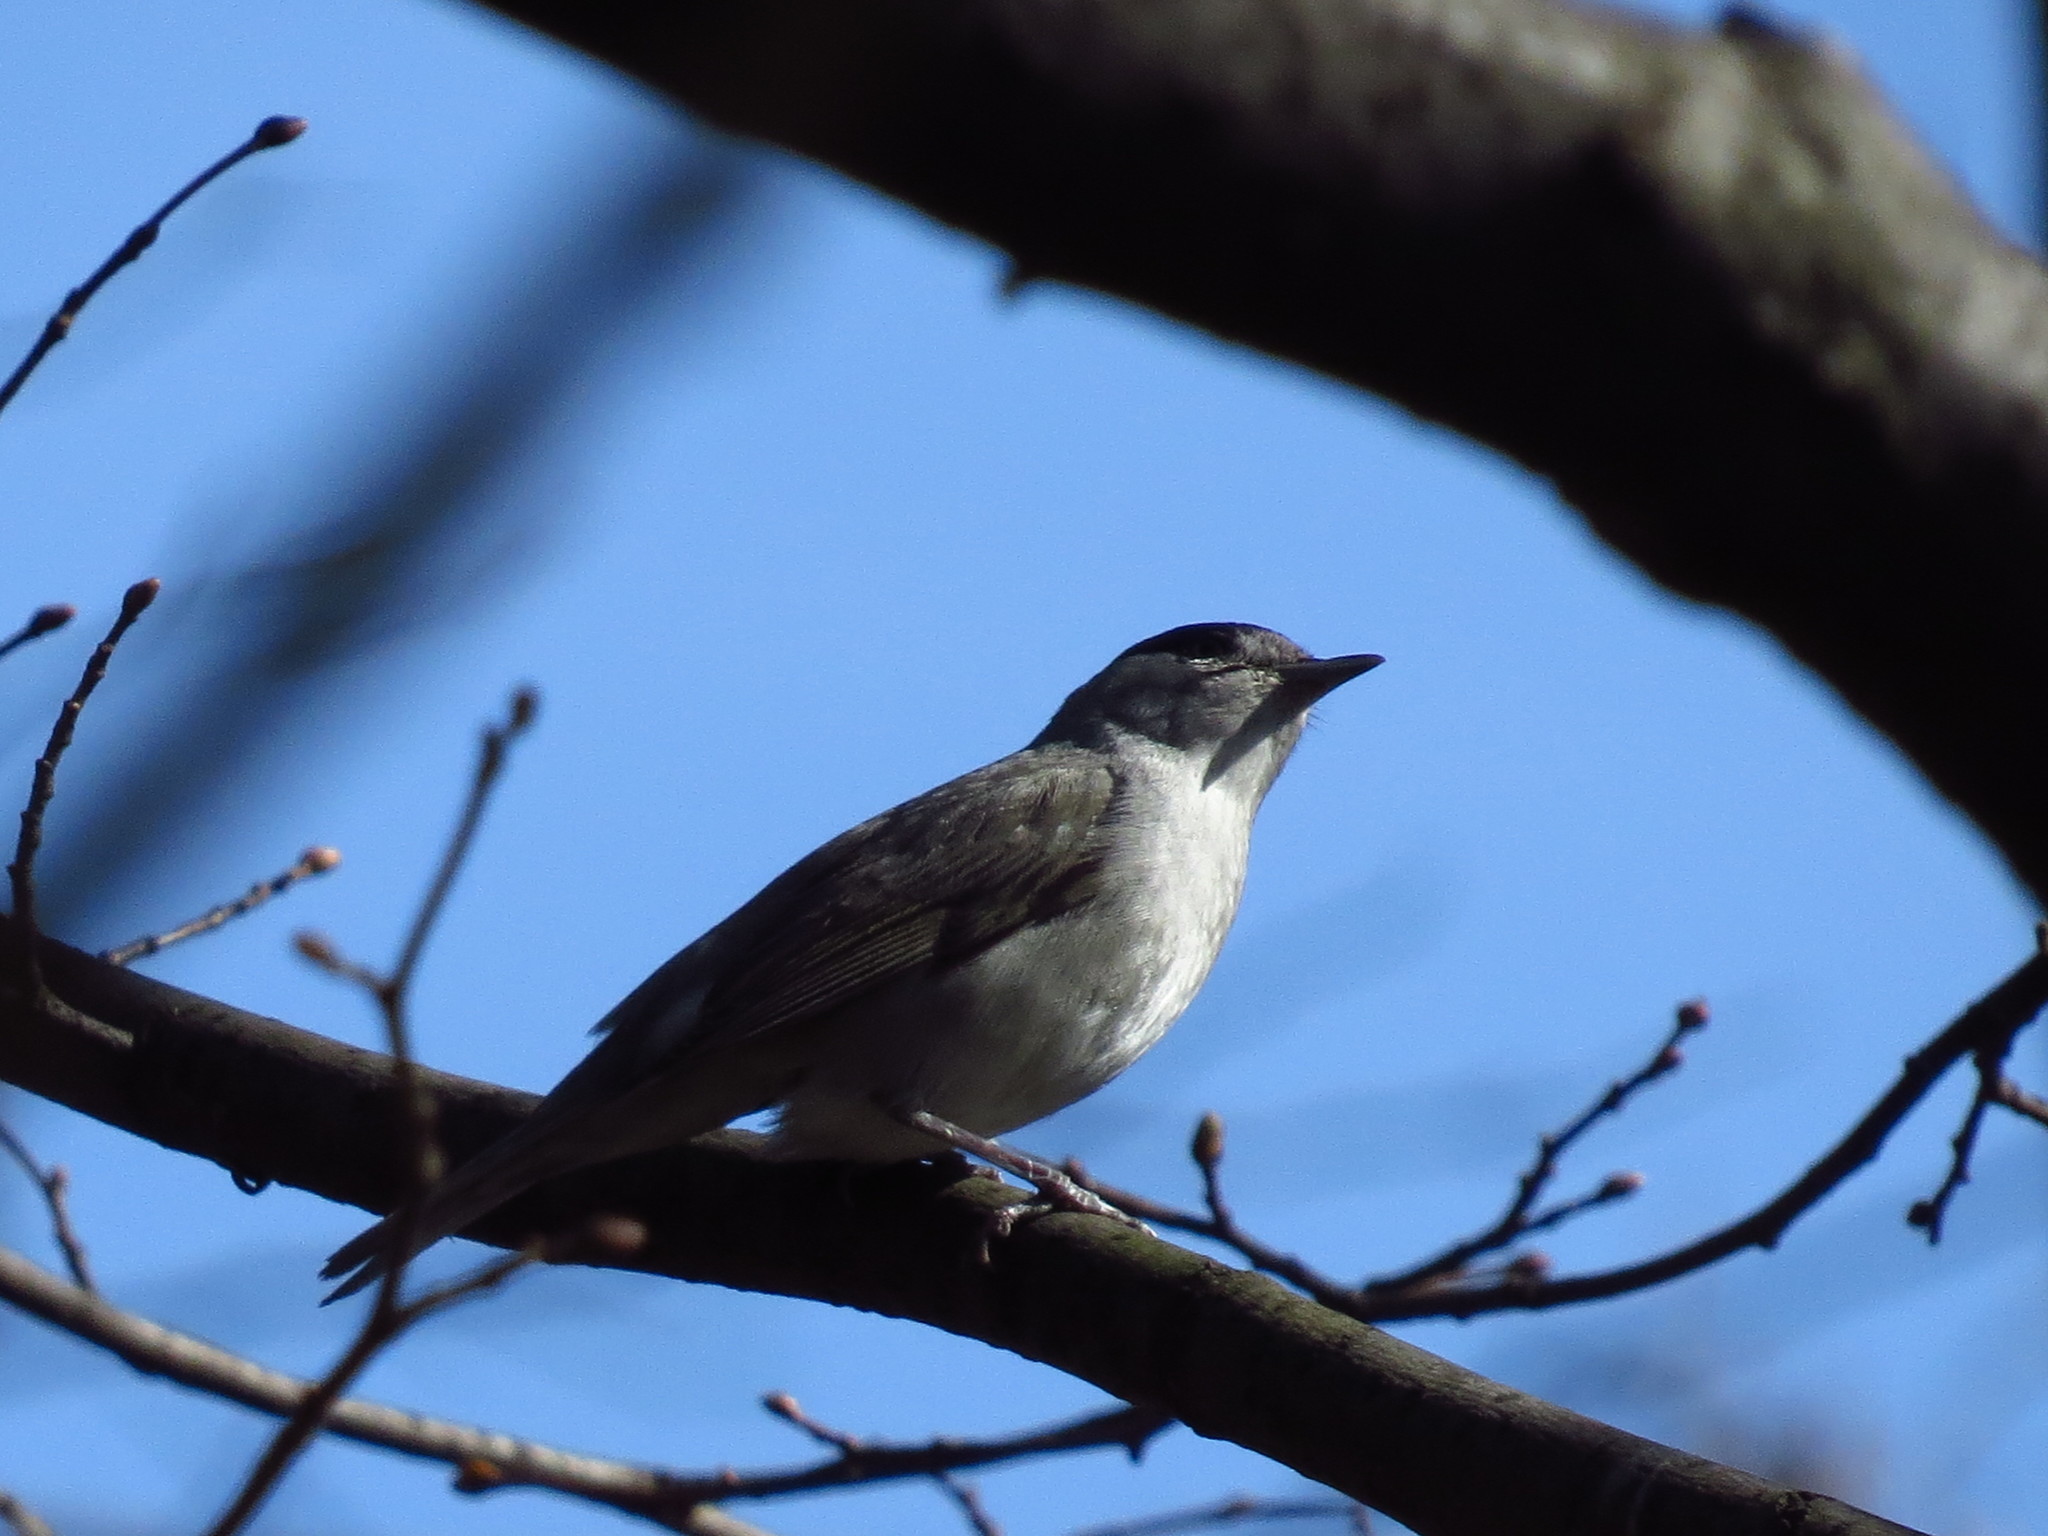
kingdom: Animalia
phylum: Chordata
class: Aves
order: Passeriformes
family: Sylviidae
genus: Sylvia
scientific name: Sylvia atricapilla
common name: Eurasian blackcap
